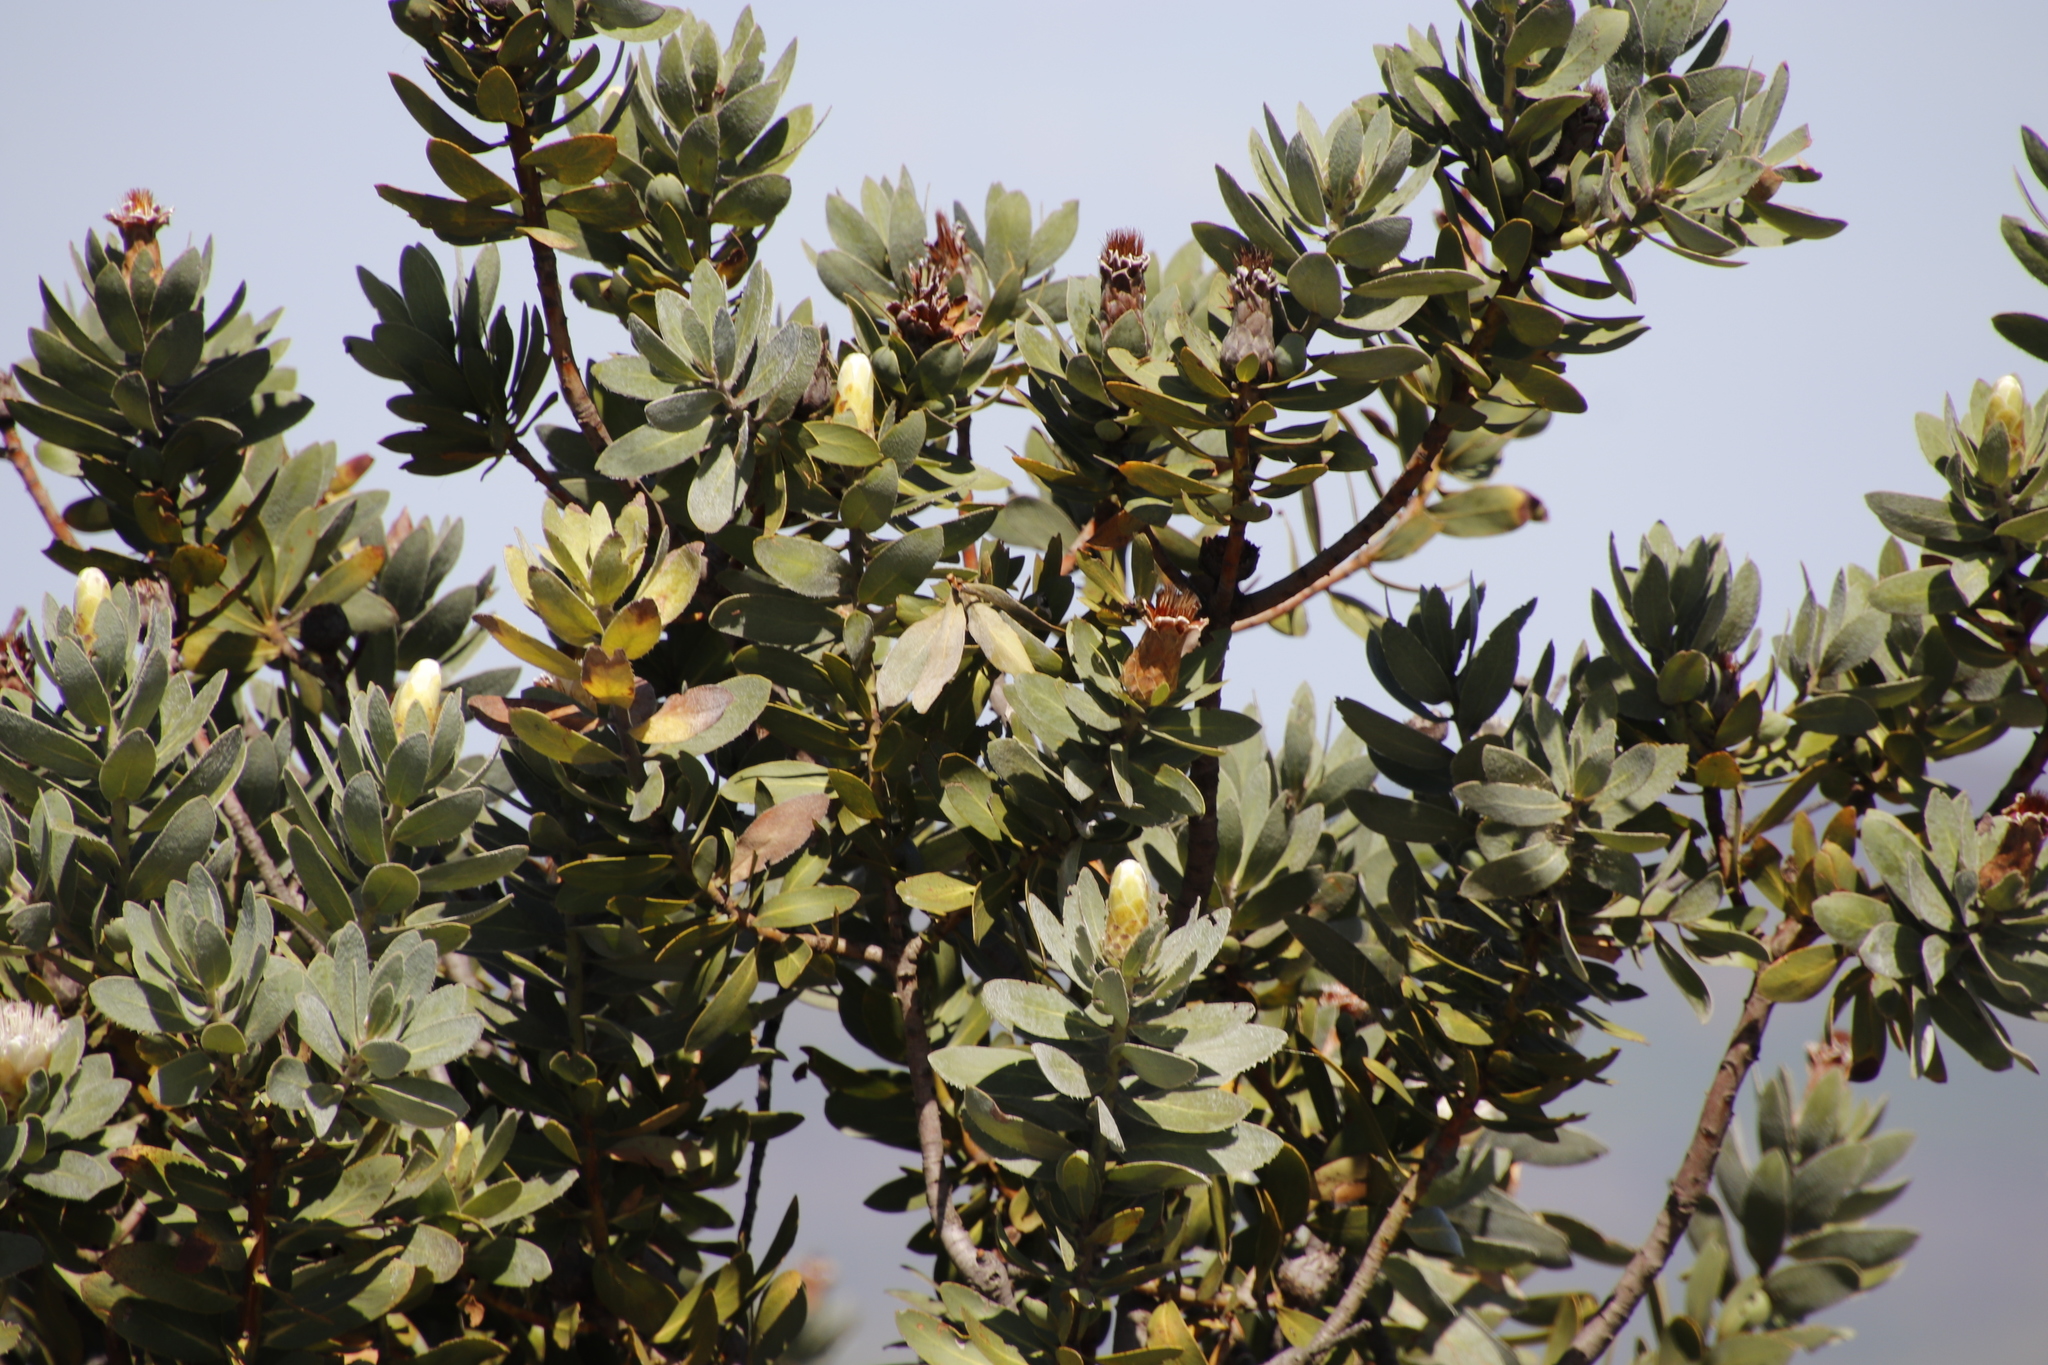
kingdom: Plantae
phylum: Tracheophyta
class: Magnoliopsida
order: Proteales
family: Proteaceae
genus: Protea
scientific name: Protea subvestita
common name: Lip-flower sugarbush
